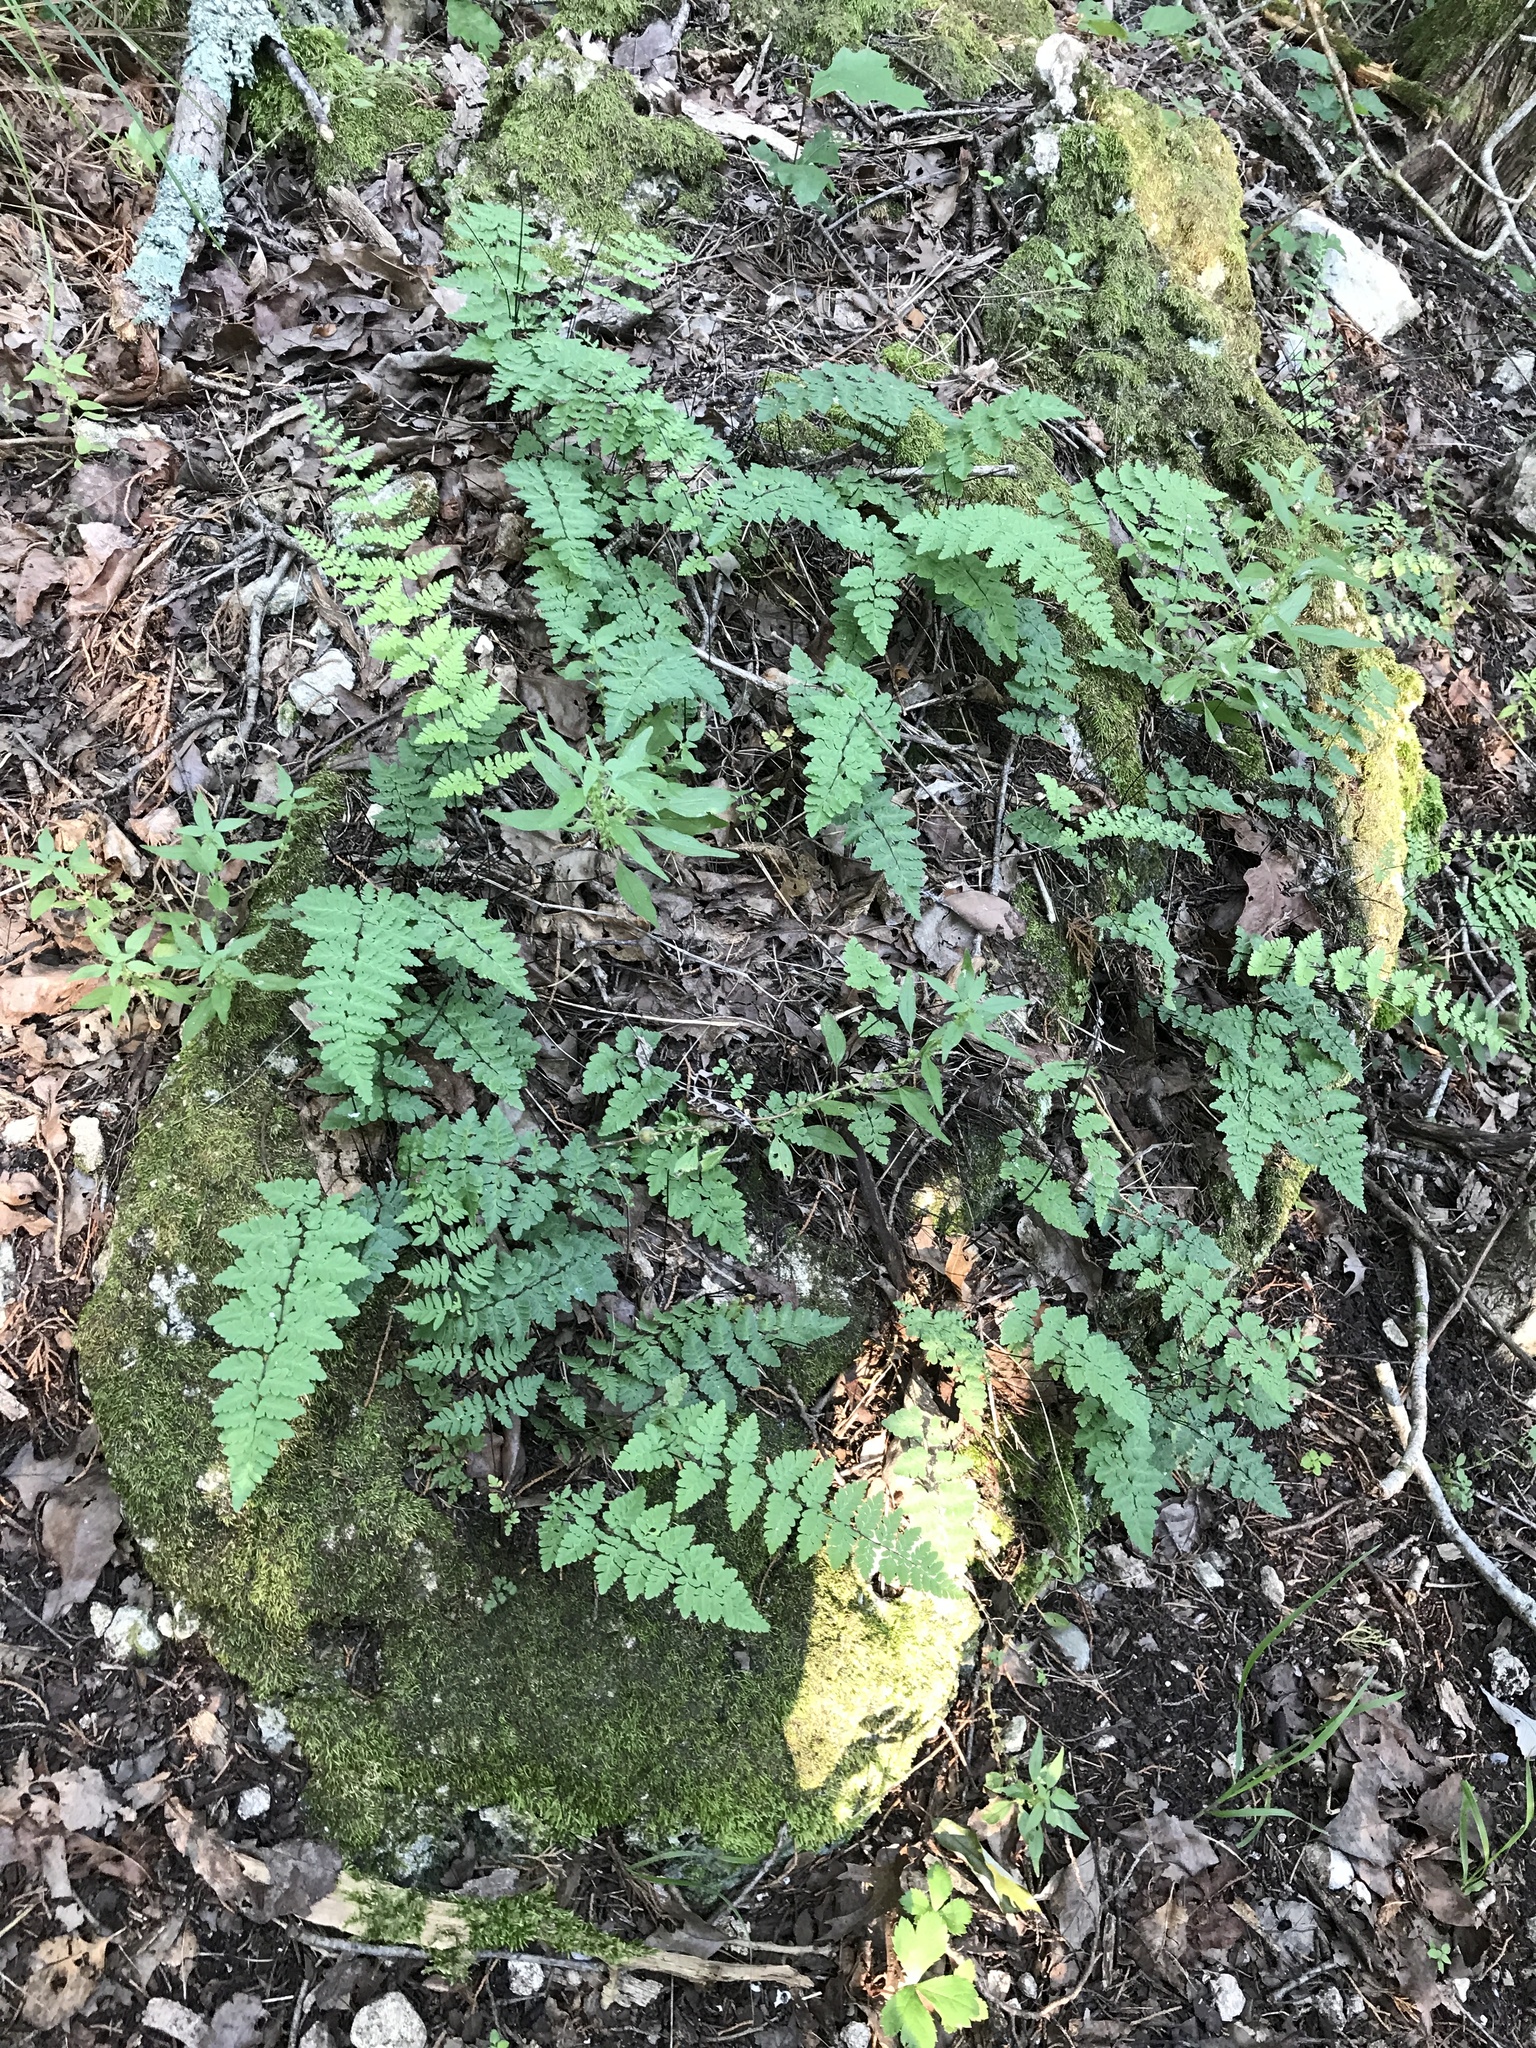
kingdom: Plantae
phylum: Tracheophyta
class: Polypodiopsida
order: Polypodiales
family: Pteridaceae
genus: Myriopteris
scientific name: Myriopteris alabamensis
